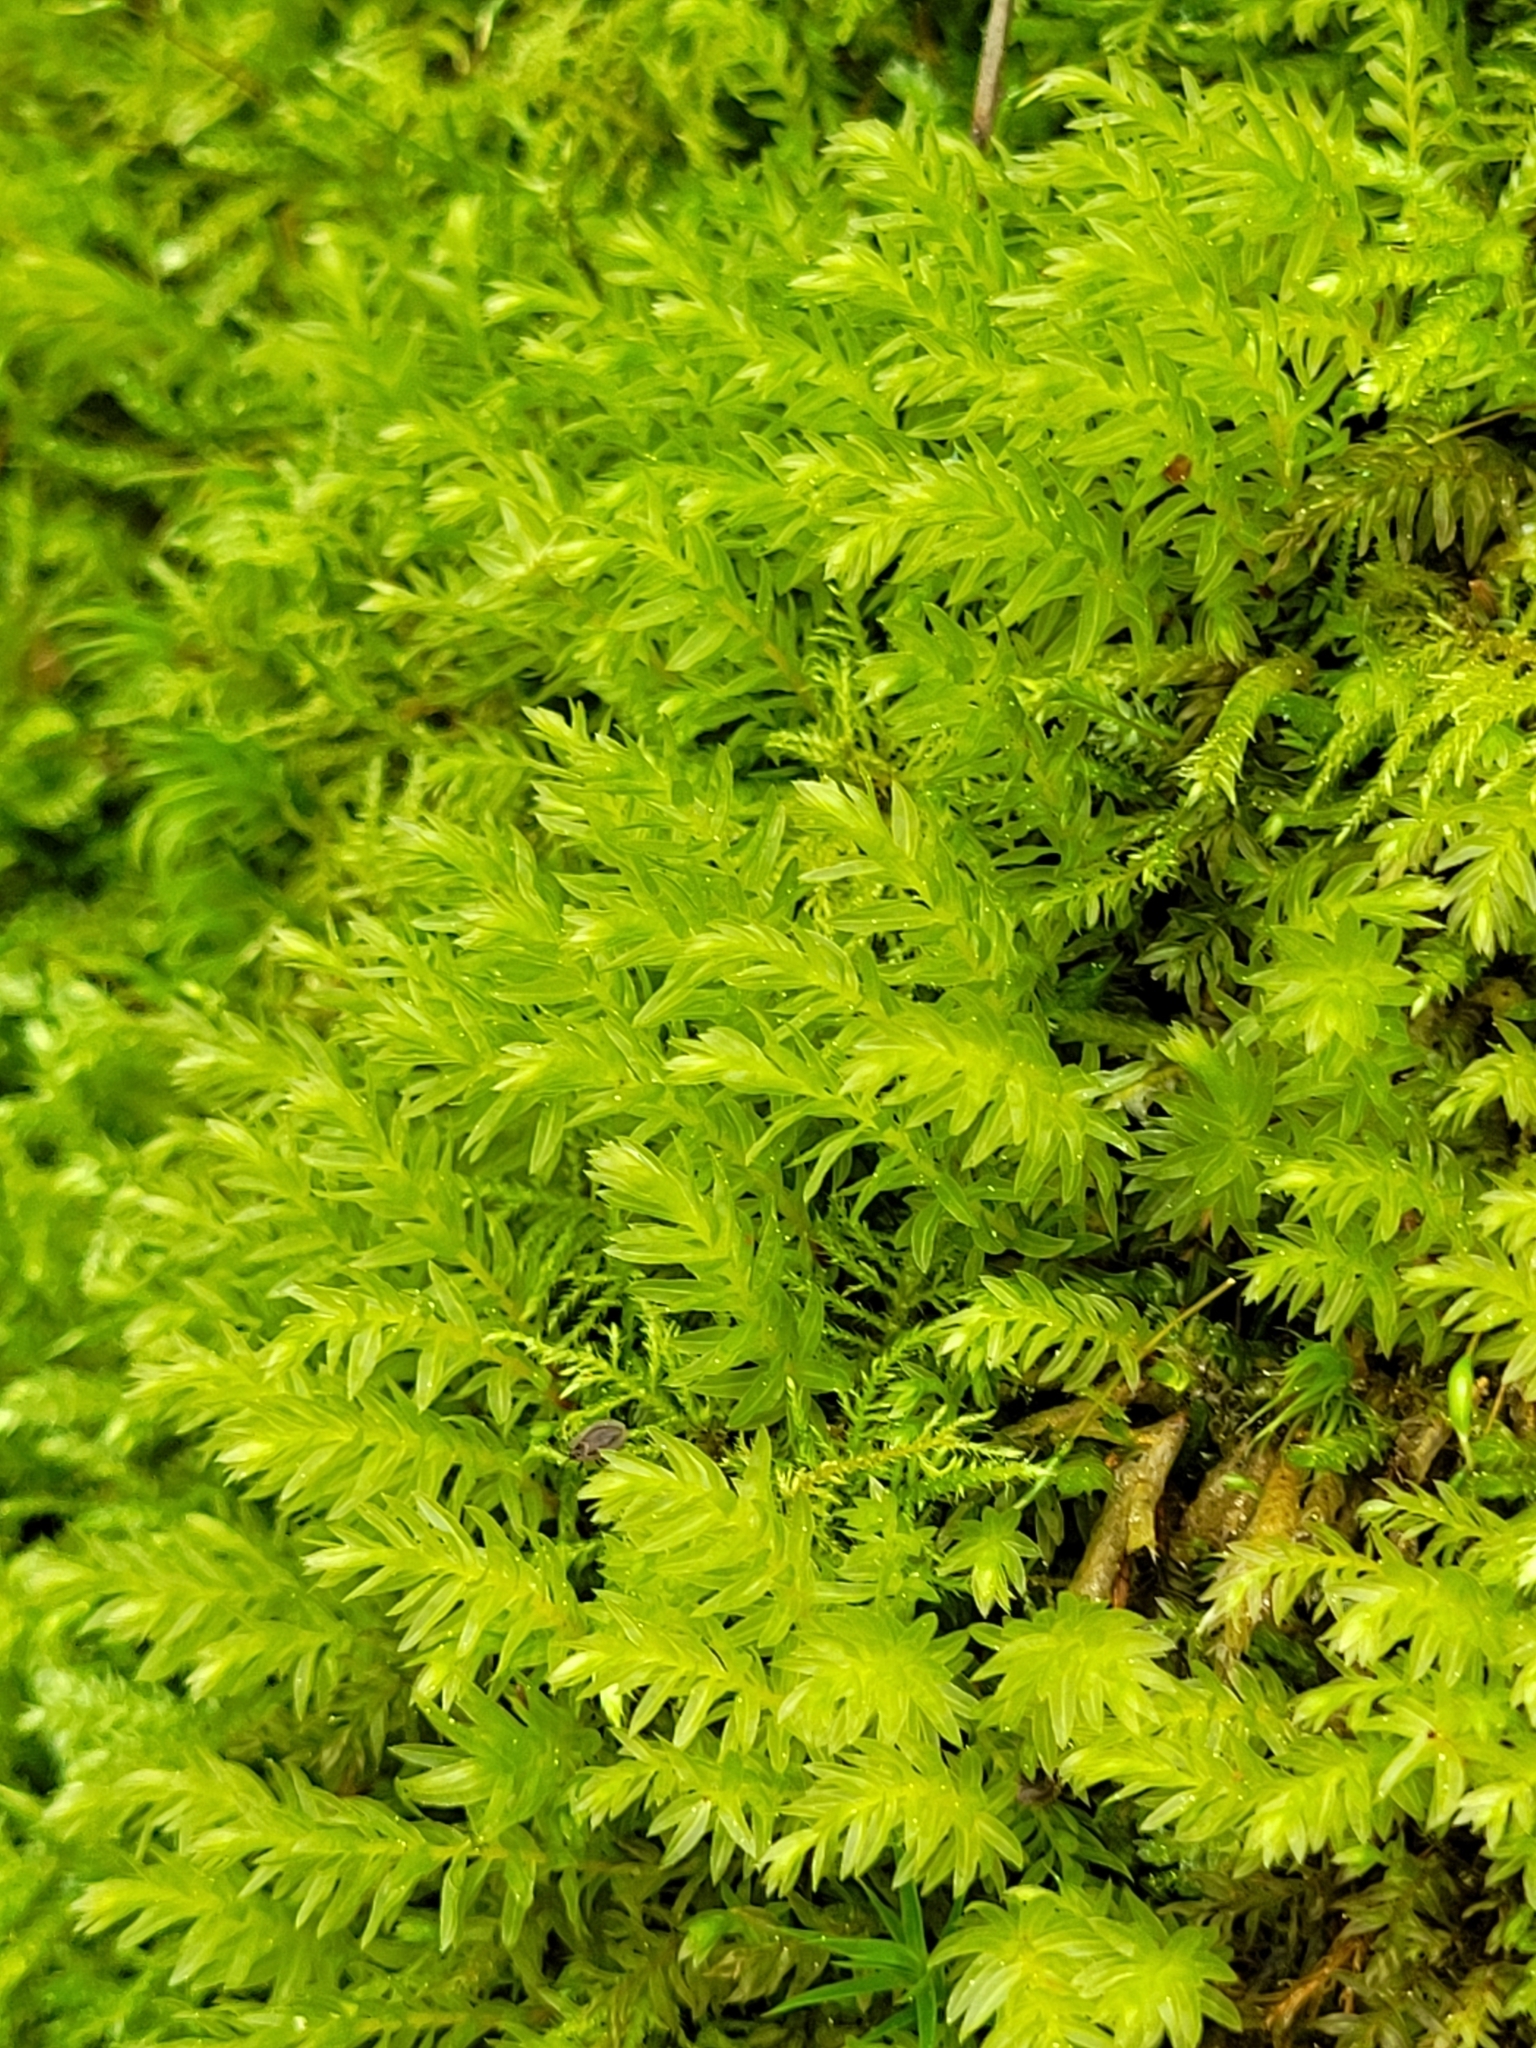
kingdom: Plantae
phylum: Bryophyta
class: Bryopsida
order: Bryales
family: Mniaceae
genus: Mnium
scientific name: Mnium hornum
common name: Swan's-neck leafy moss
